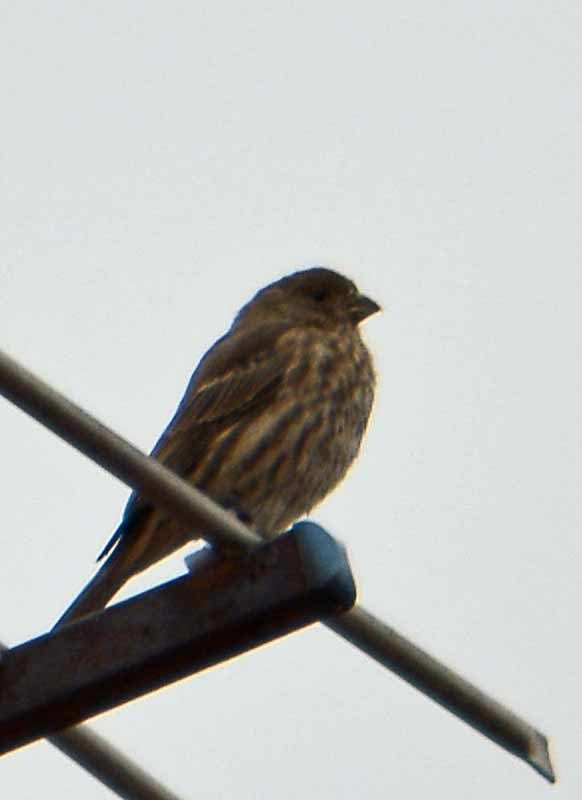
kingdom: Animalia
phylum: Chordata
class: Aves
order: Passeriformes
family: Fringillidae
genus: Haemorhous
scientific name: Haemorhous mexicanus
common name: House finch
